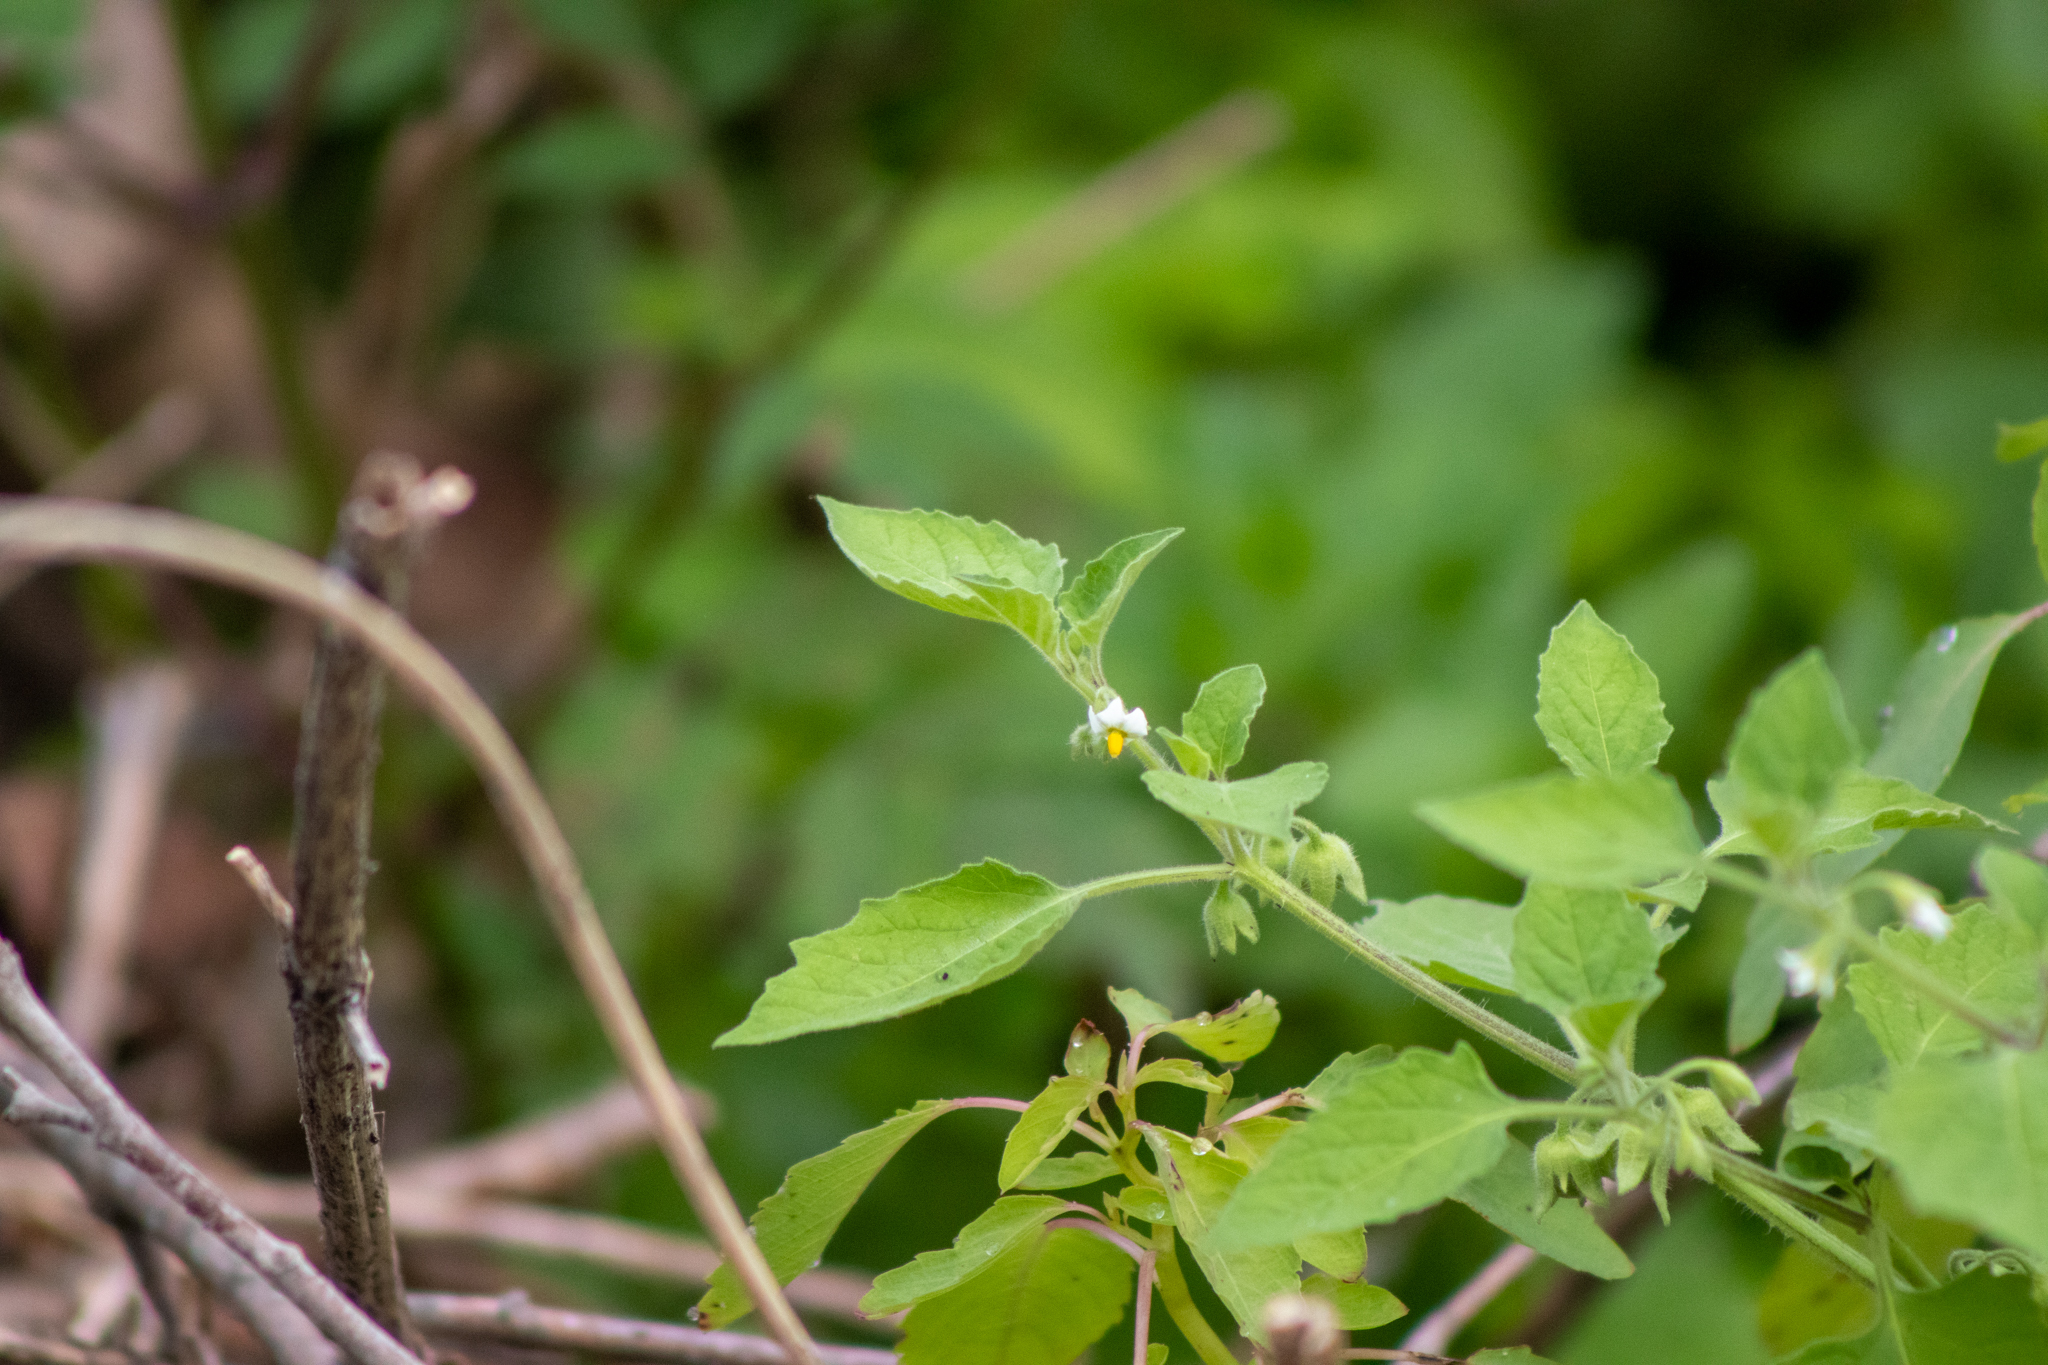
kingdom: Plantae
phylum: Tracheophyta
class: Magnoliopsida
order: Solanales
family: Solanaceae
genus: Solanum
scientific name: Solanum sarrachoides
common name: Leafy-fruited nightshade
